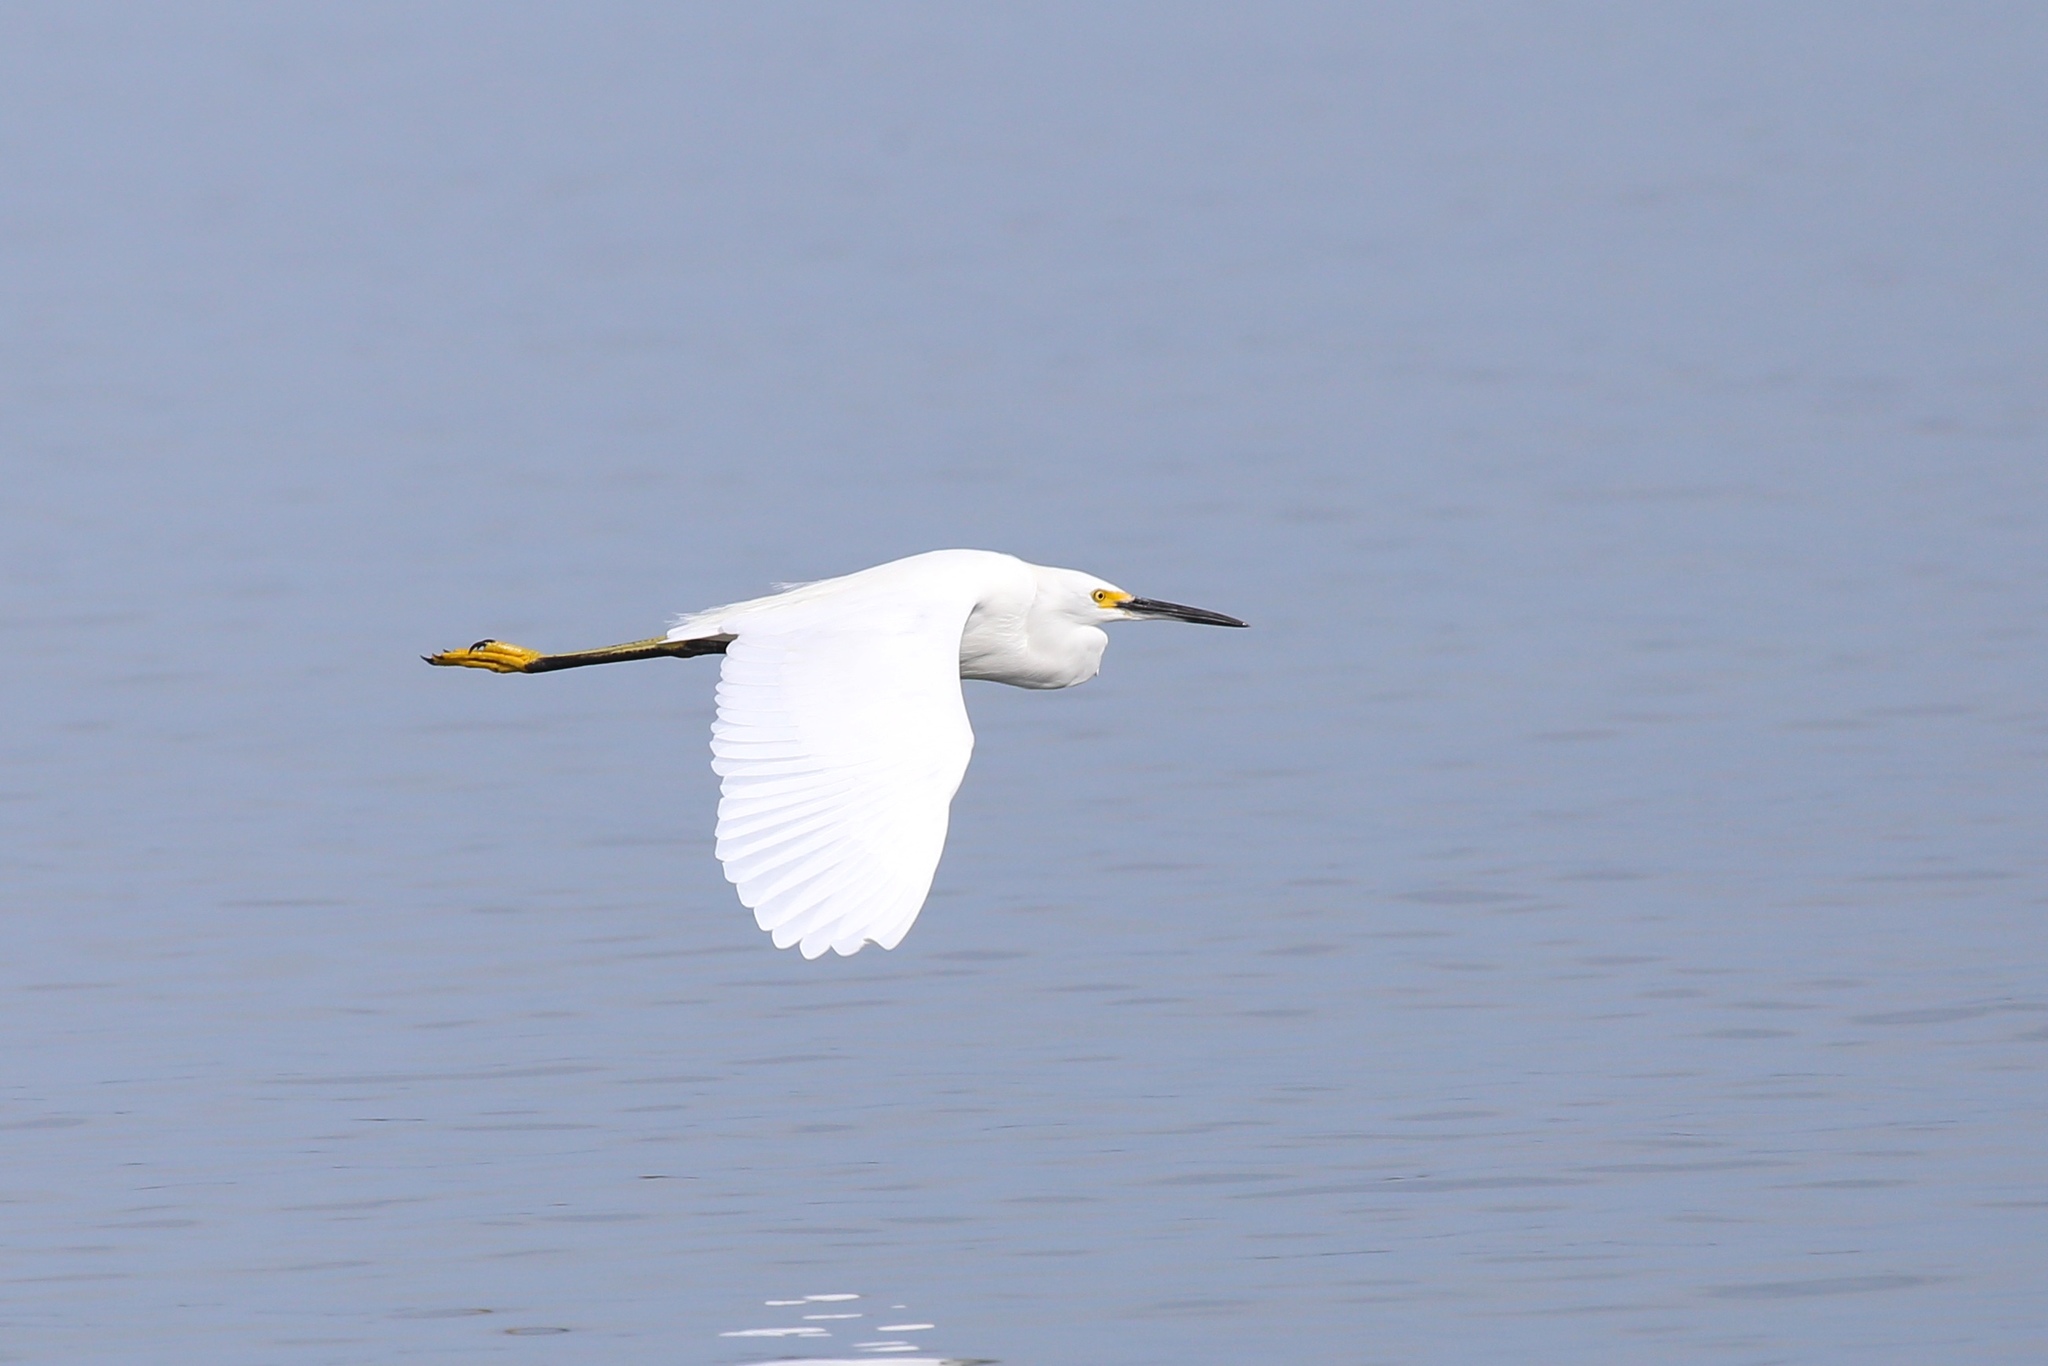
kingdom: Animalia
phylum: Chordata
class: Aves
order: Pelecaniformes
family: Ardeidae
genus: Egretta
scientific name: Egretta thula
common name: Snowy egret
